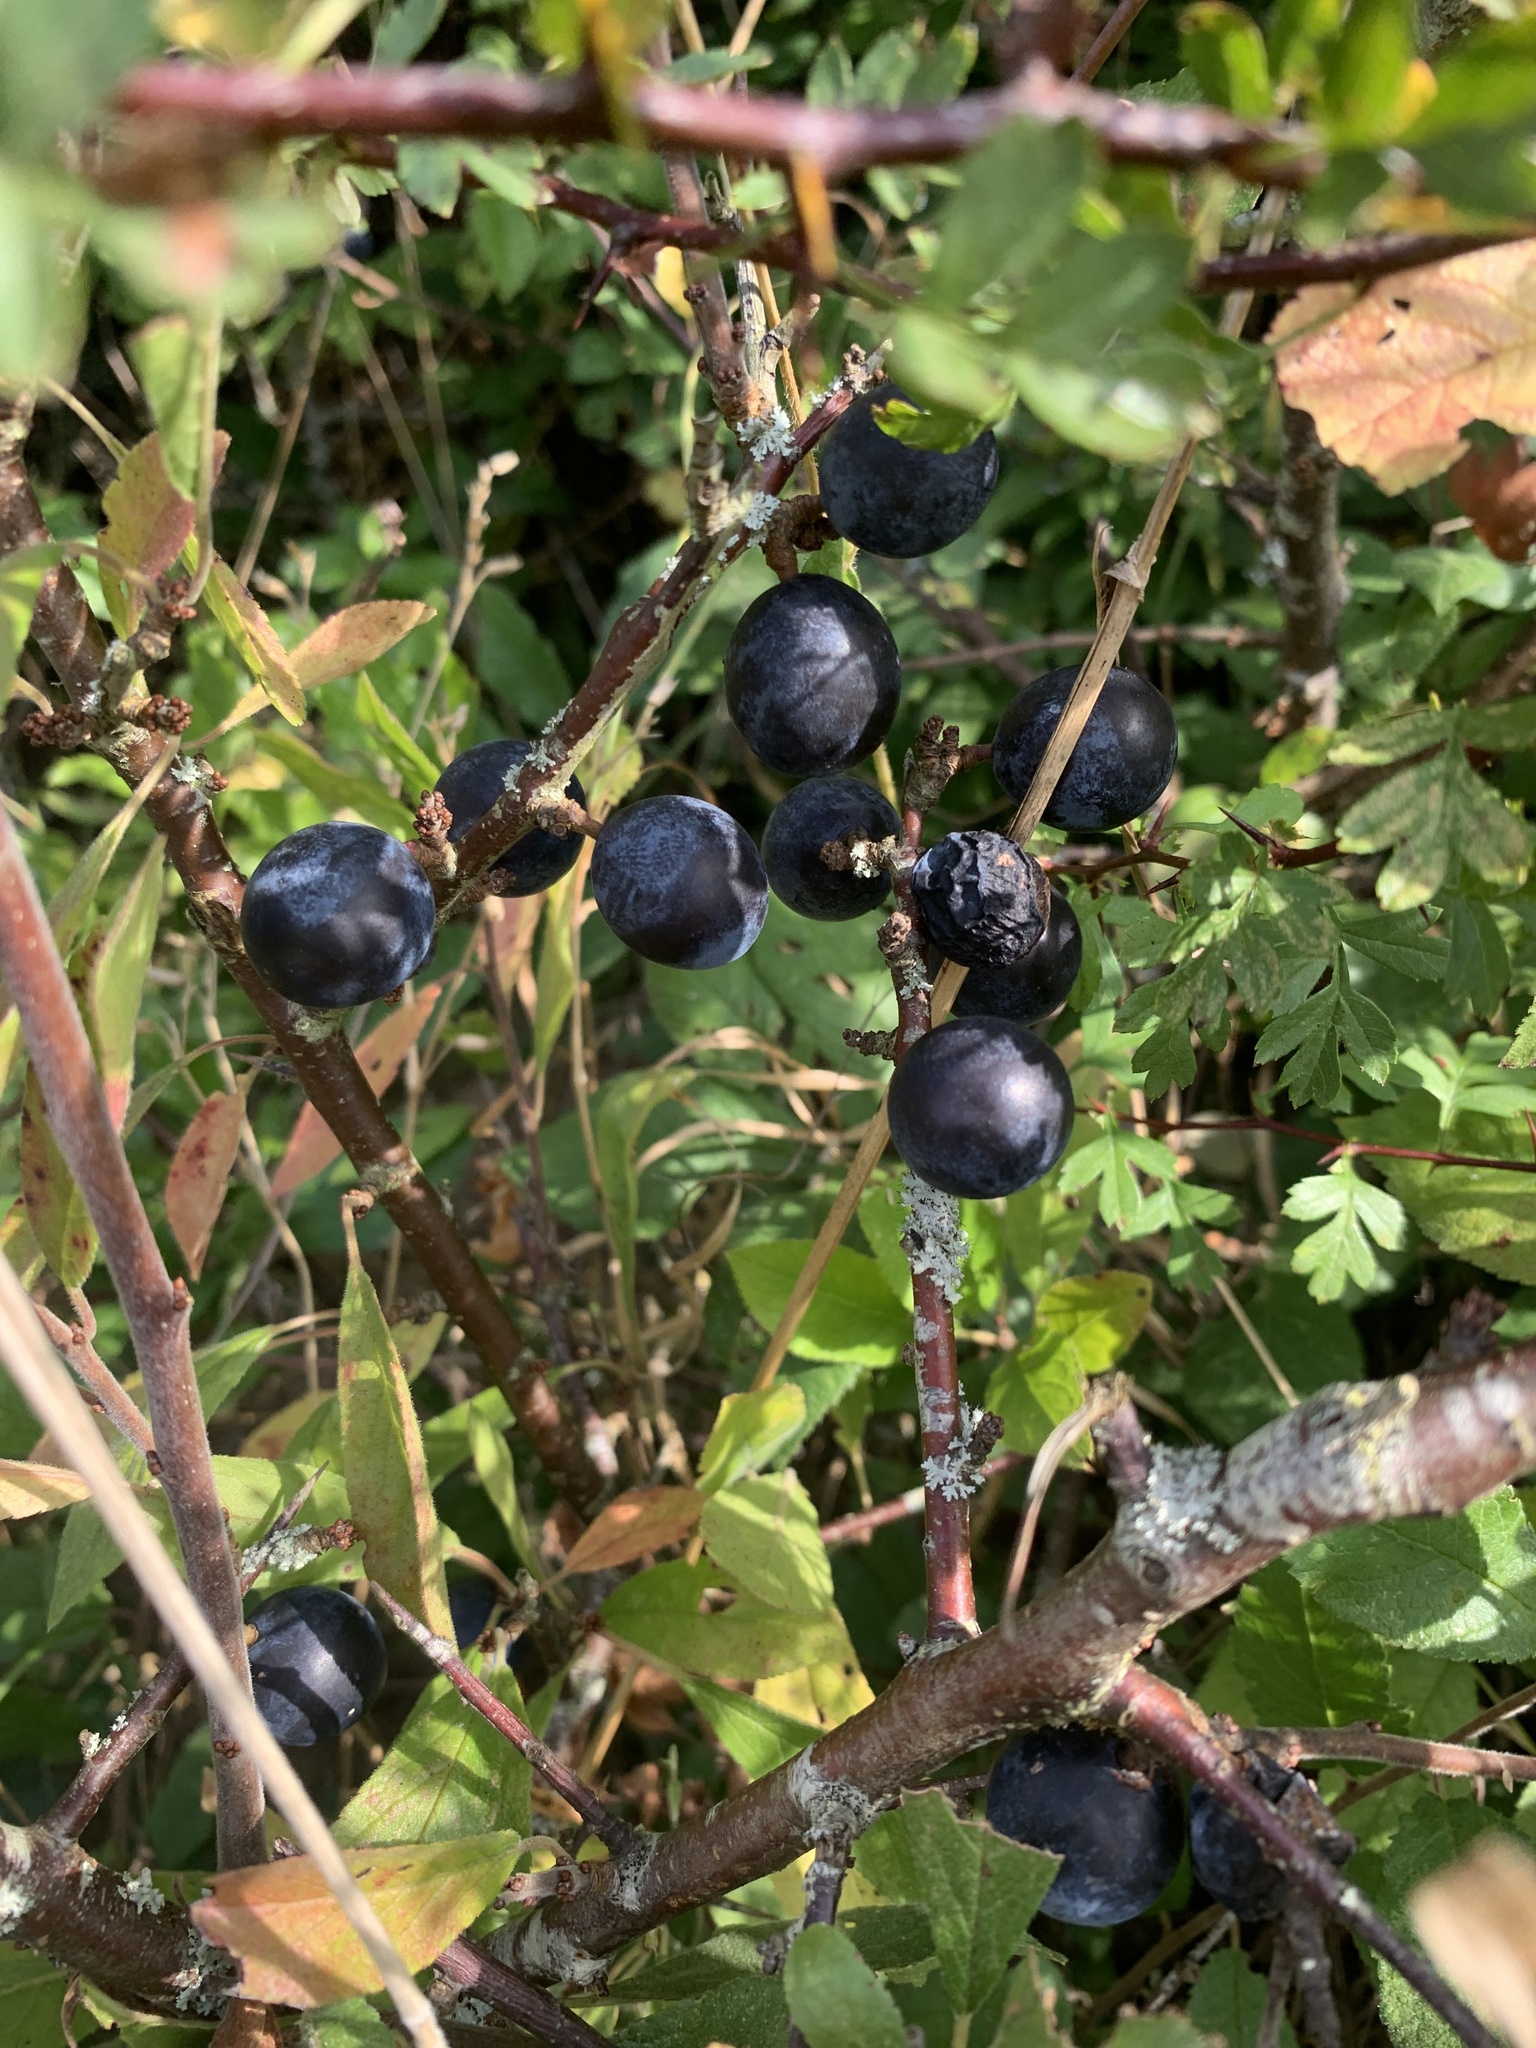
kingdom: Plantae
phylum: Tracheophyta
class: Magnoliopsida
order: Rosales
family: Rosaceae
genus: Prunus
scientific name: Prunus spinosa
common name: Blackthorn
